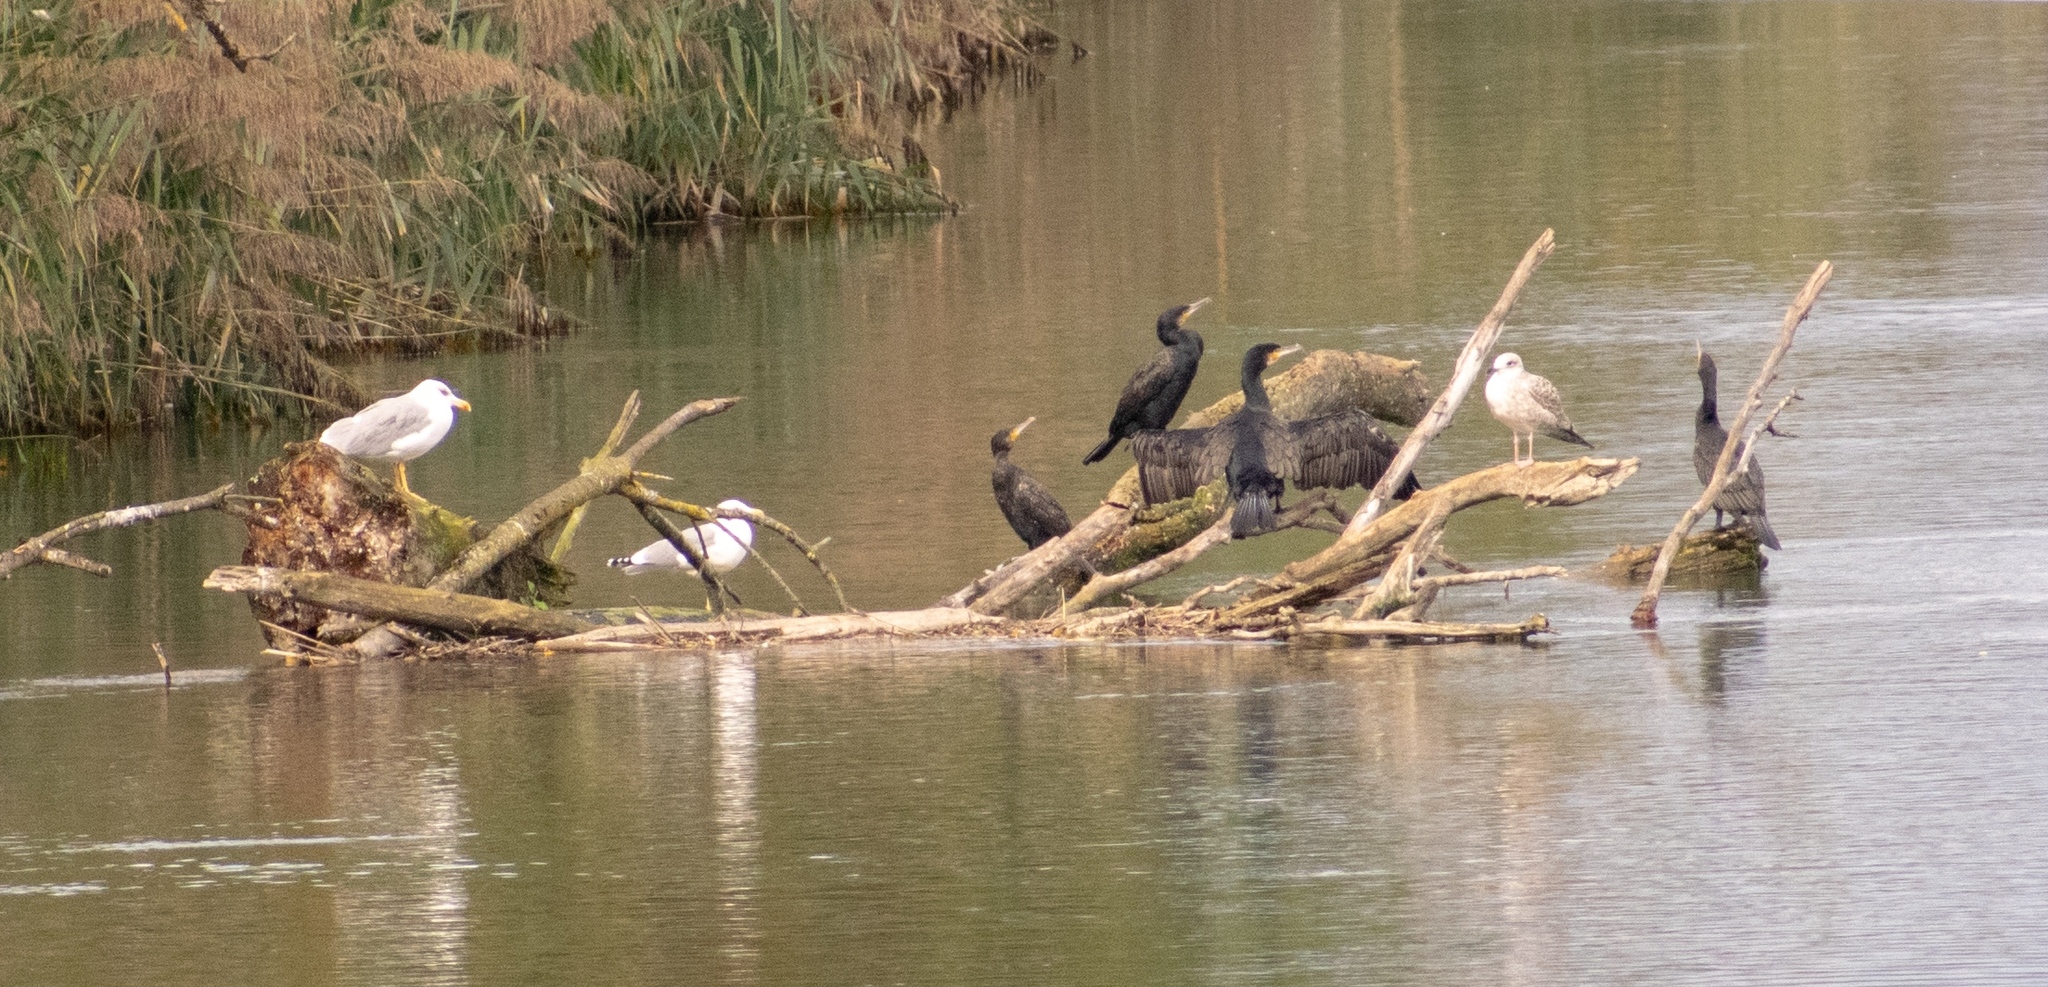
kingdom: Animalia
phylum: Chordata
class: Aves
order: Charadriiformes
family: Laridae
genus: Larus
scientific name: Larus michahellis
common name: Yellow-legged gull
